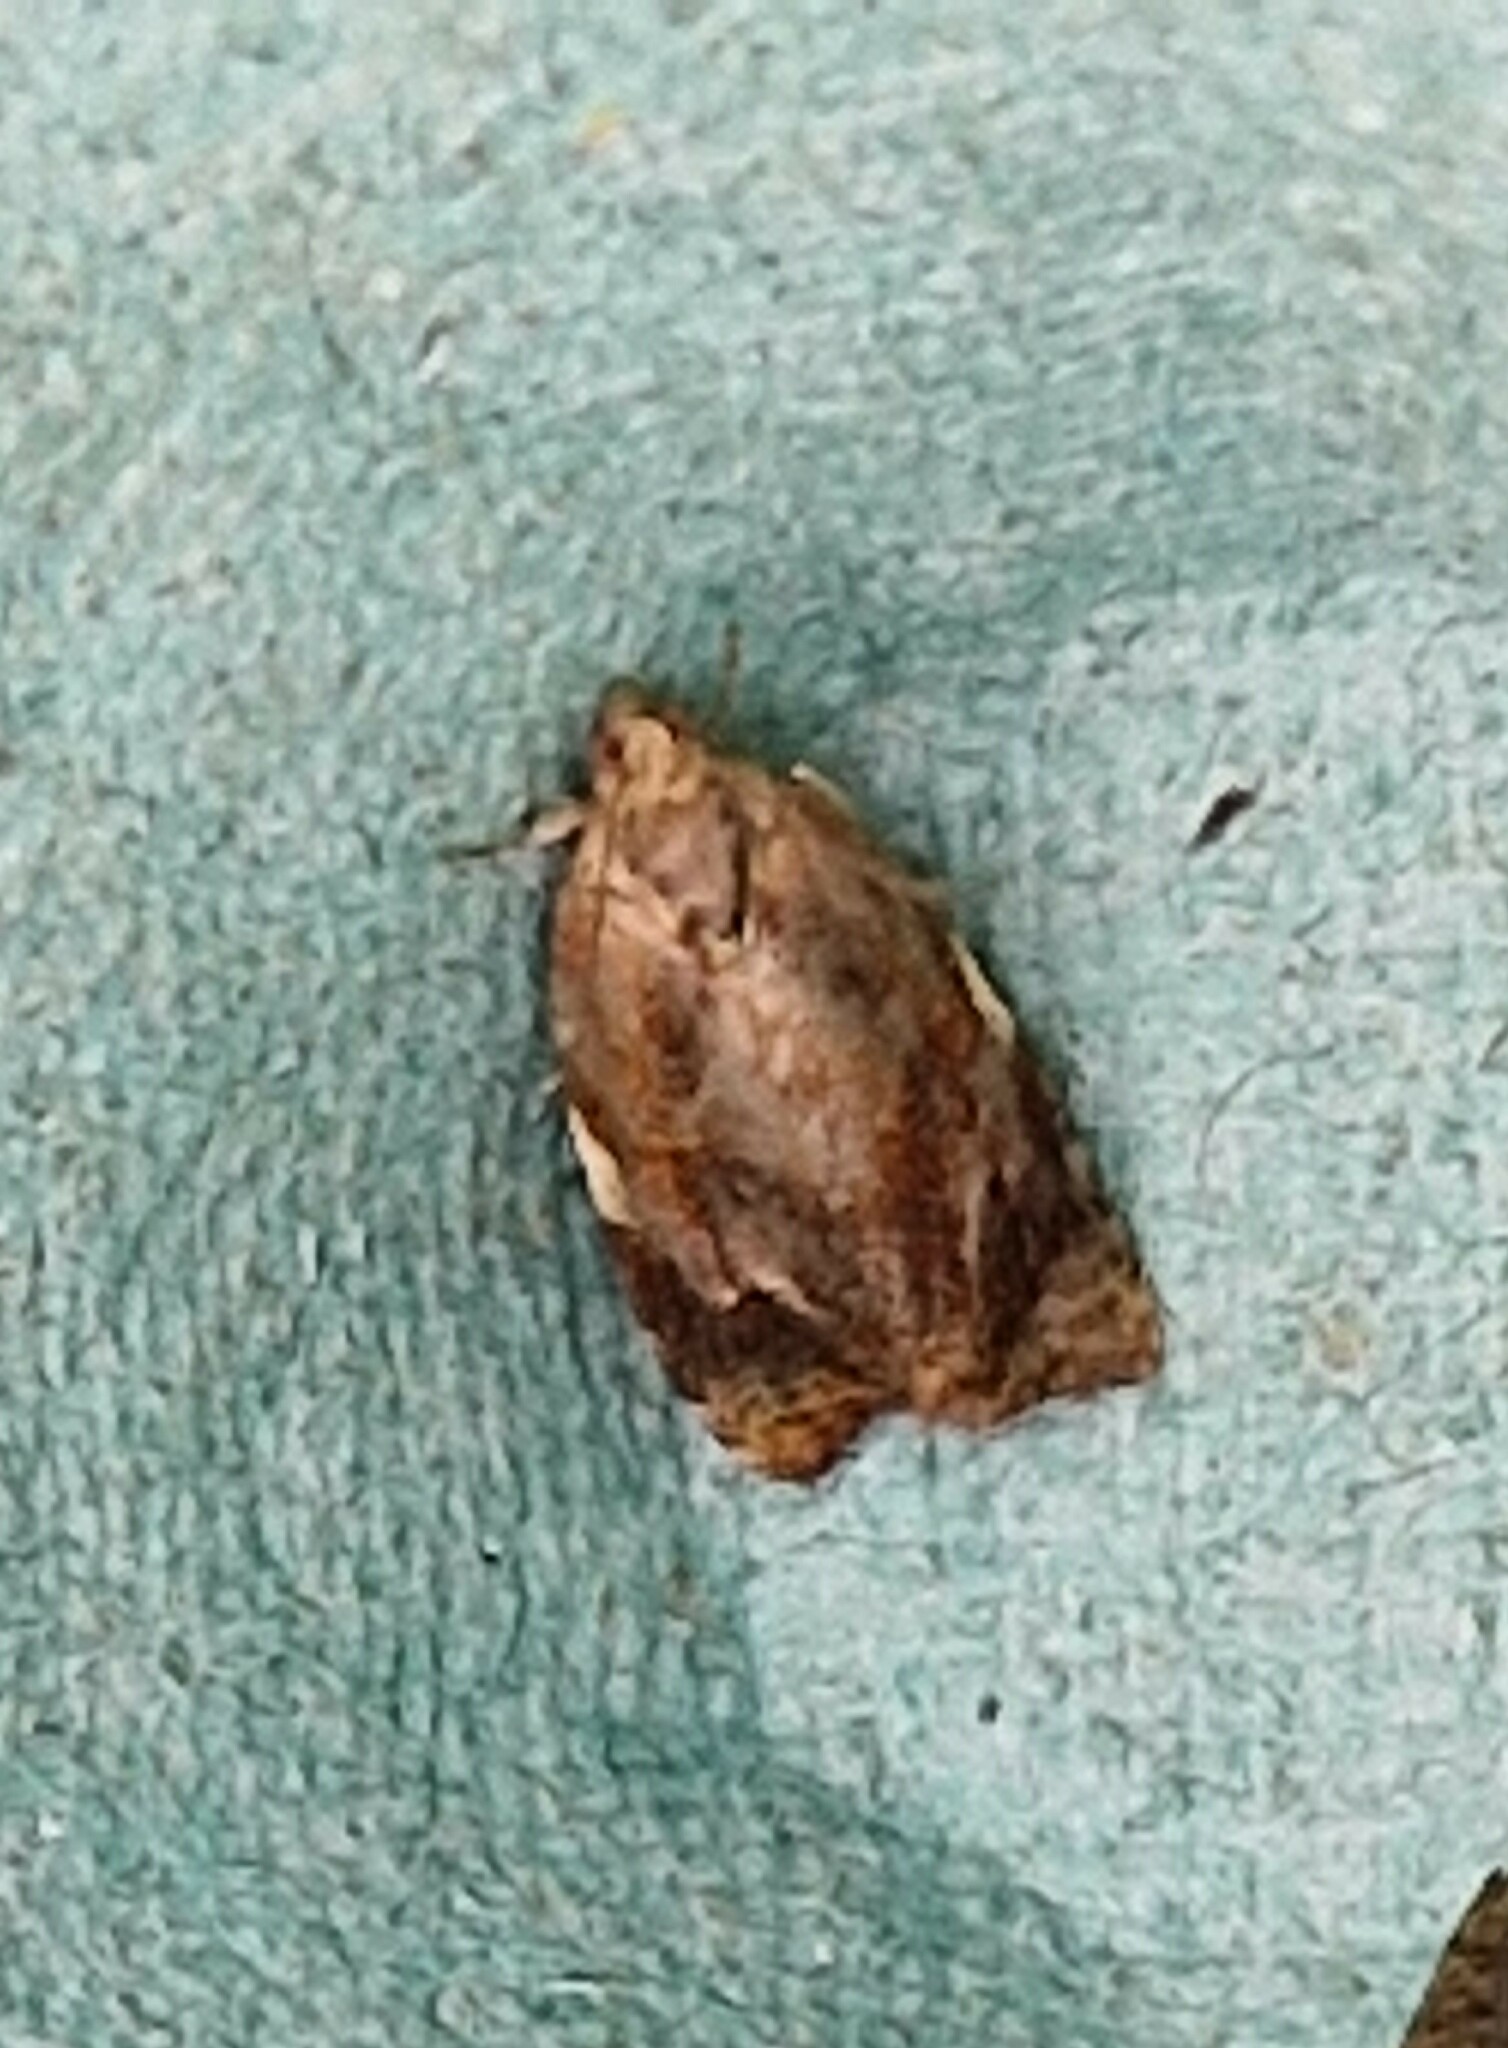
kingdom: Animalia
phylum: Arthropoda
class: Insecta
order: Lepidoptera
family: Tortricidae
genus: Ditula
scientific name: Ditula angustiorana
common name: Red-barred tortrix
